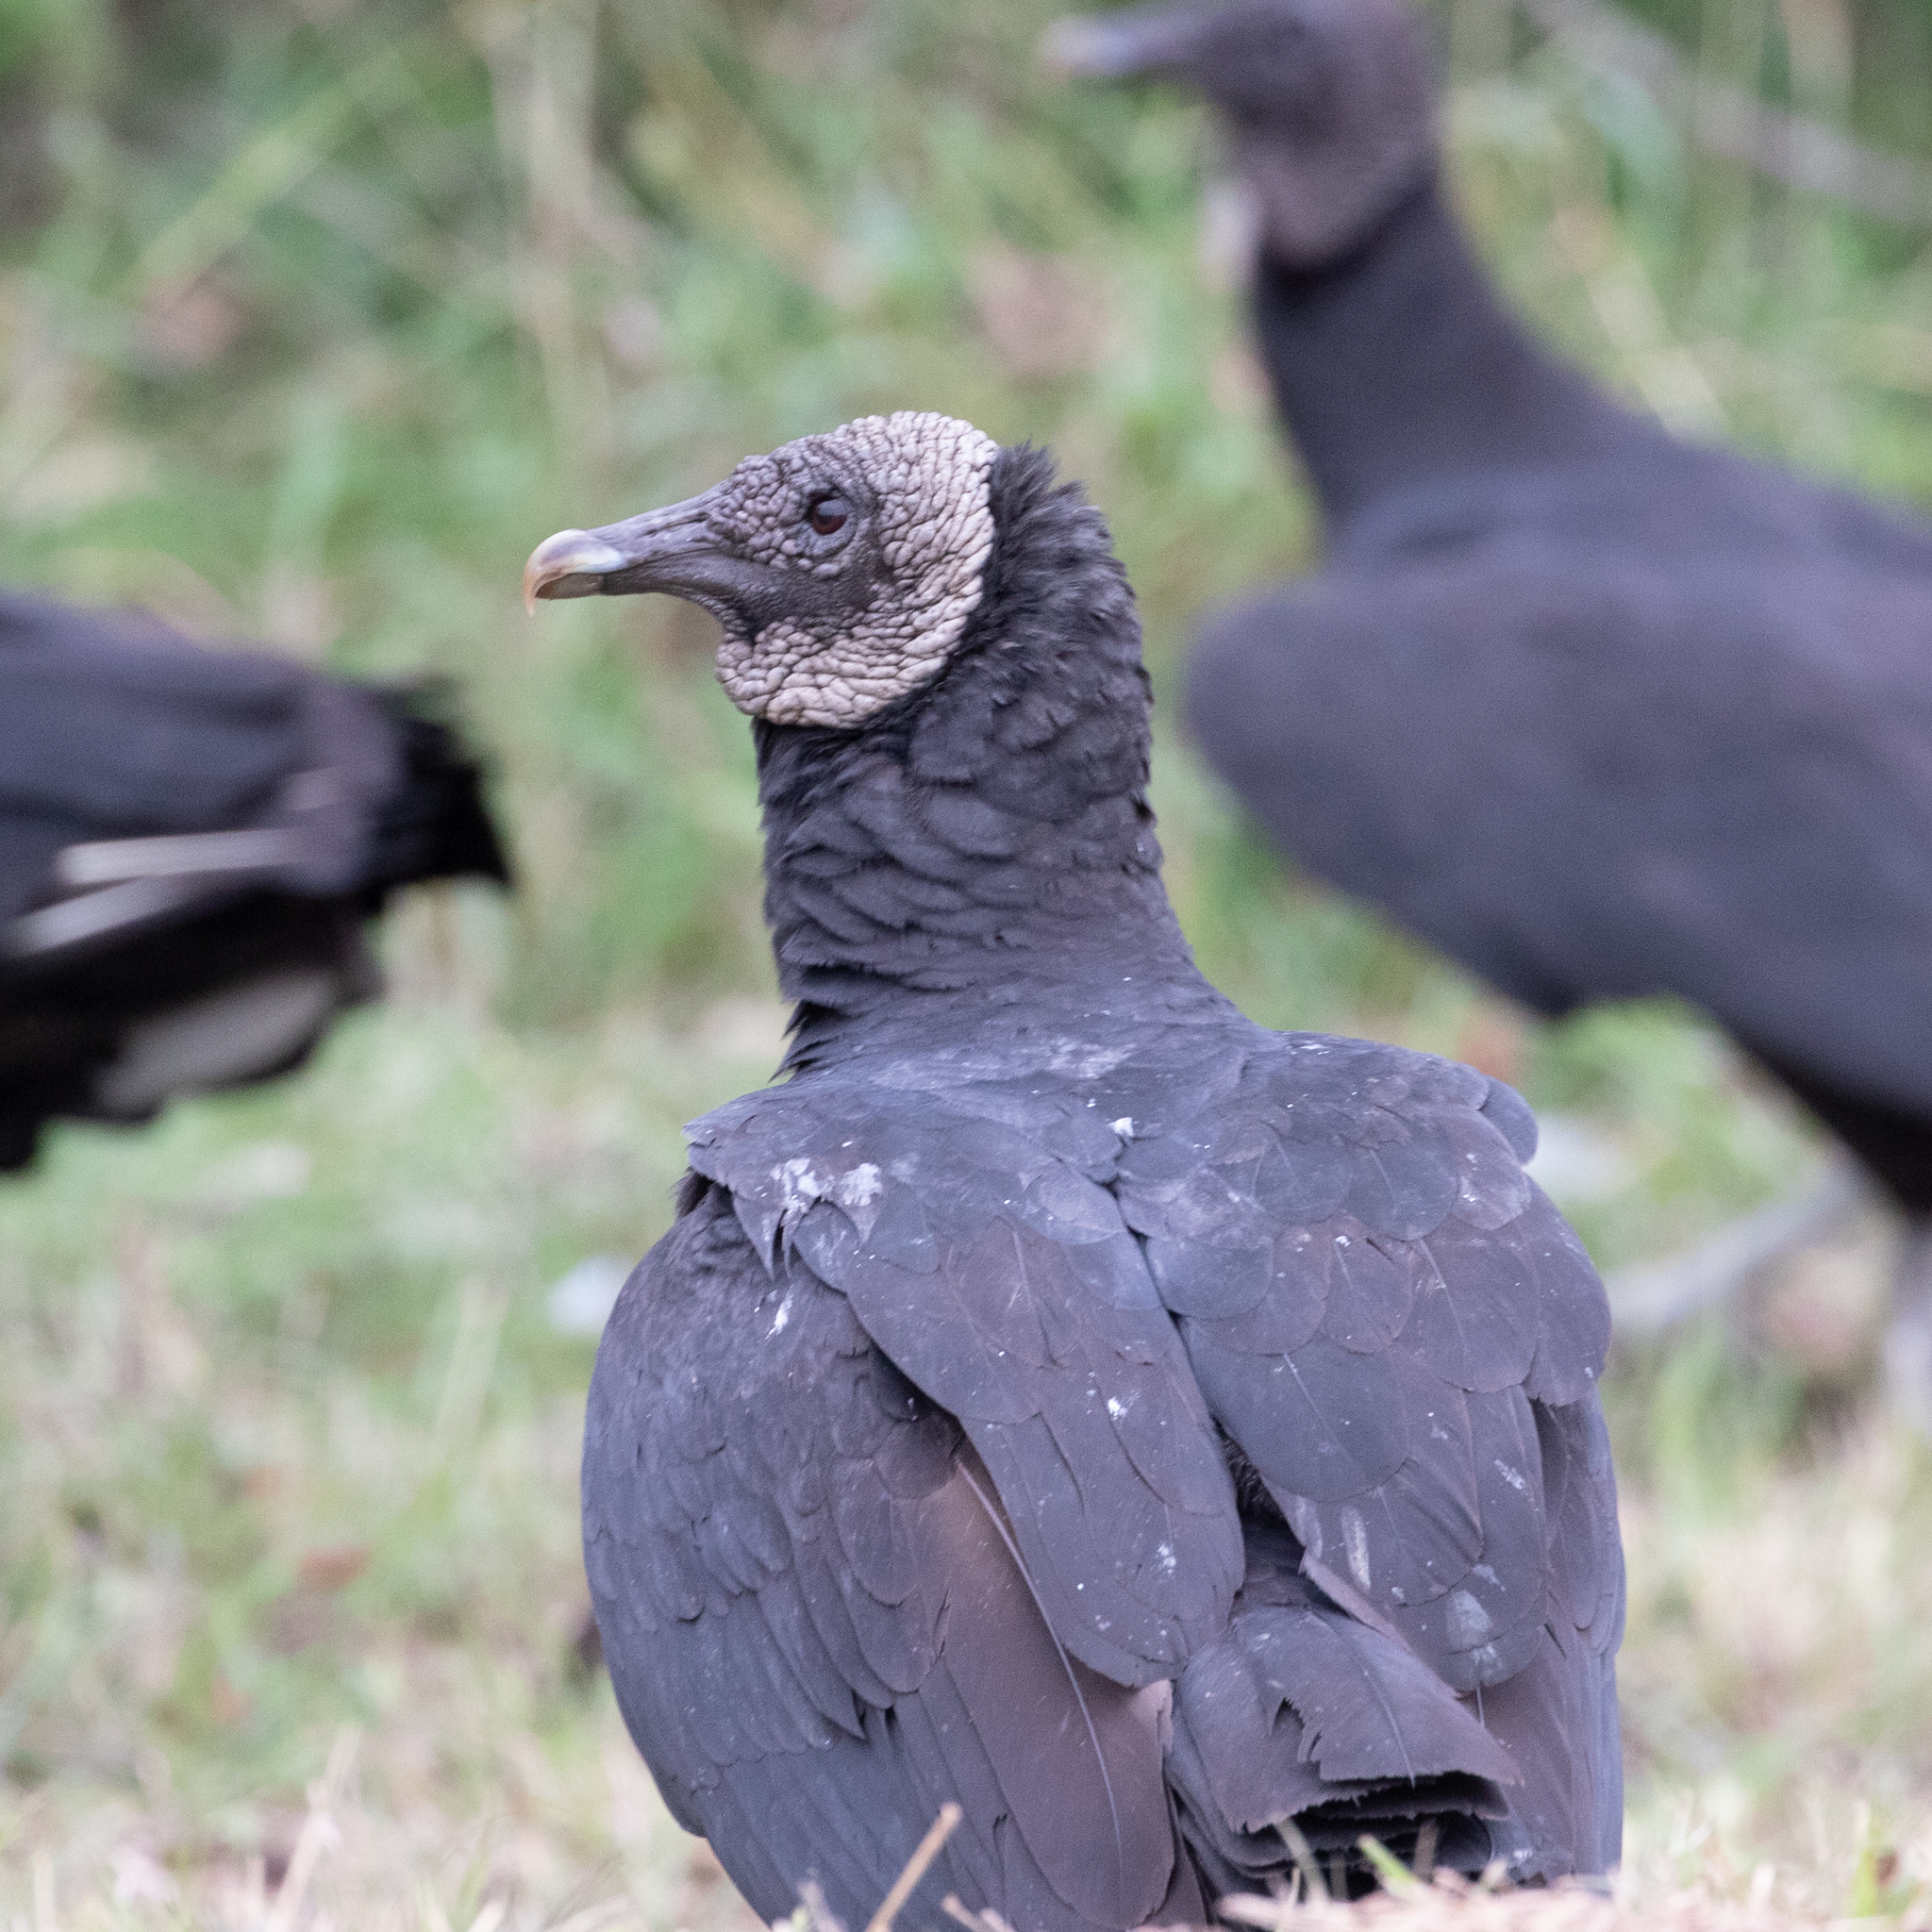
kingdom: Animalia
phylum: Chordata
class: Aves
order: Accipitriformes
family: Cathartidae
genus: Coragyps
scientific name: Coragyps atratus
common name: Black vulture
